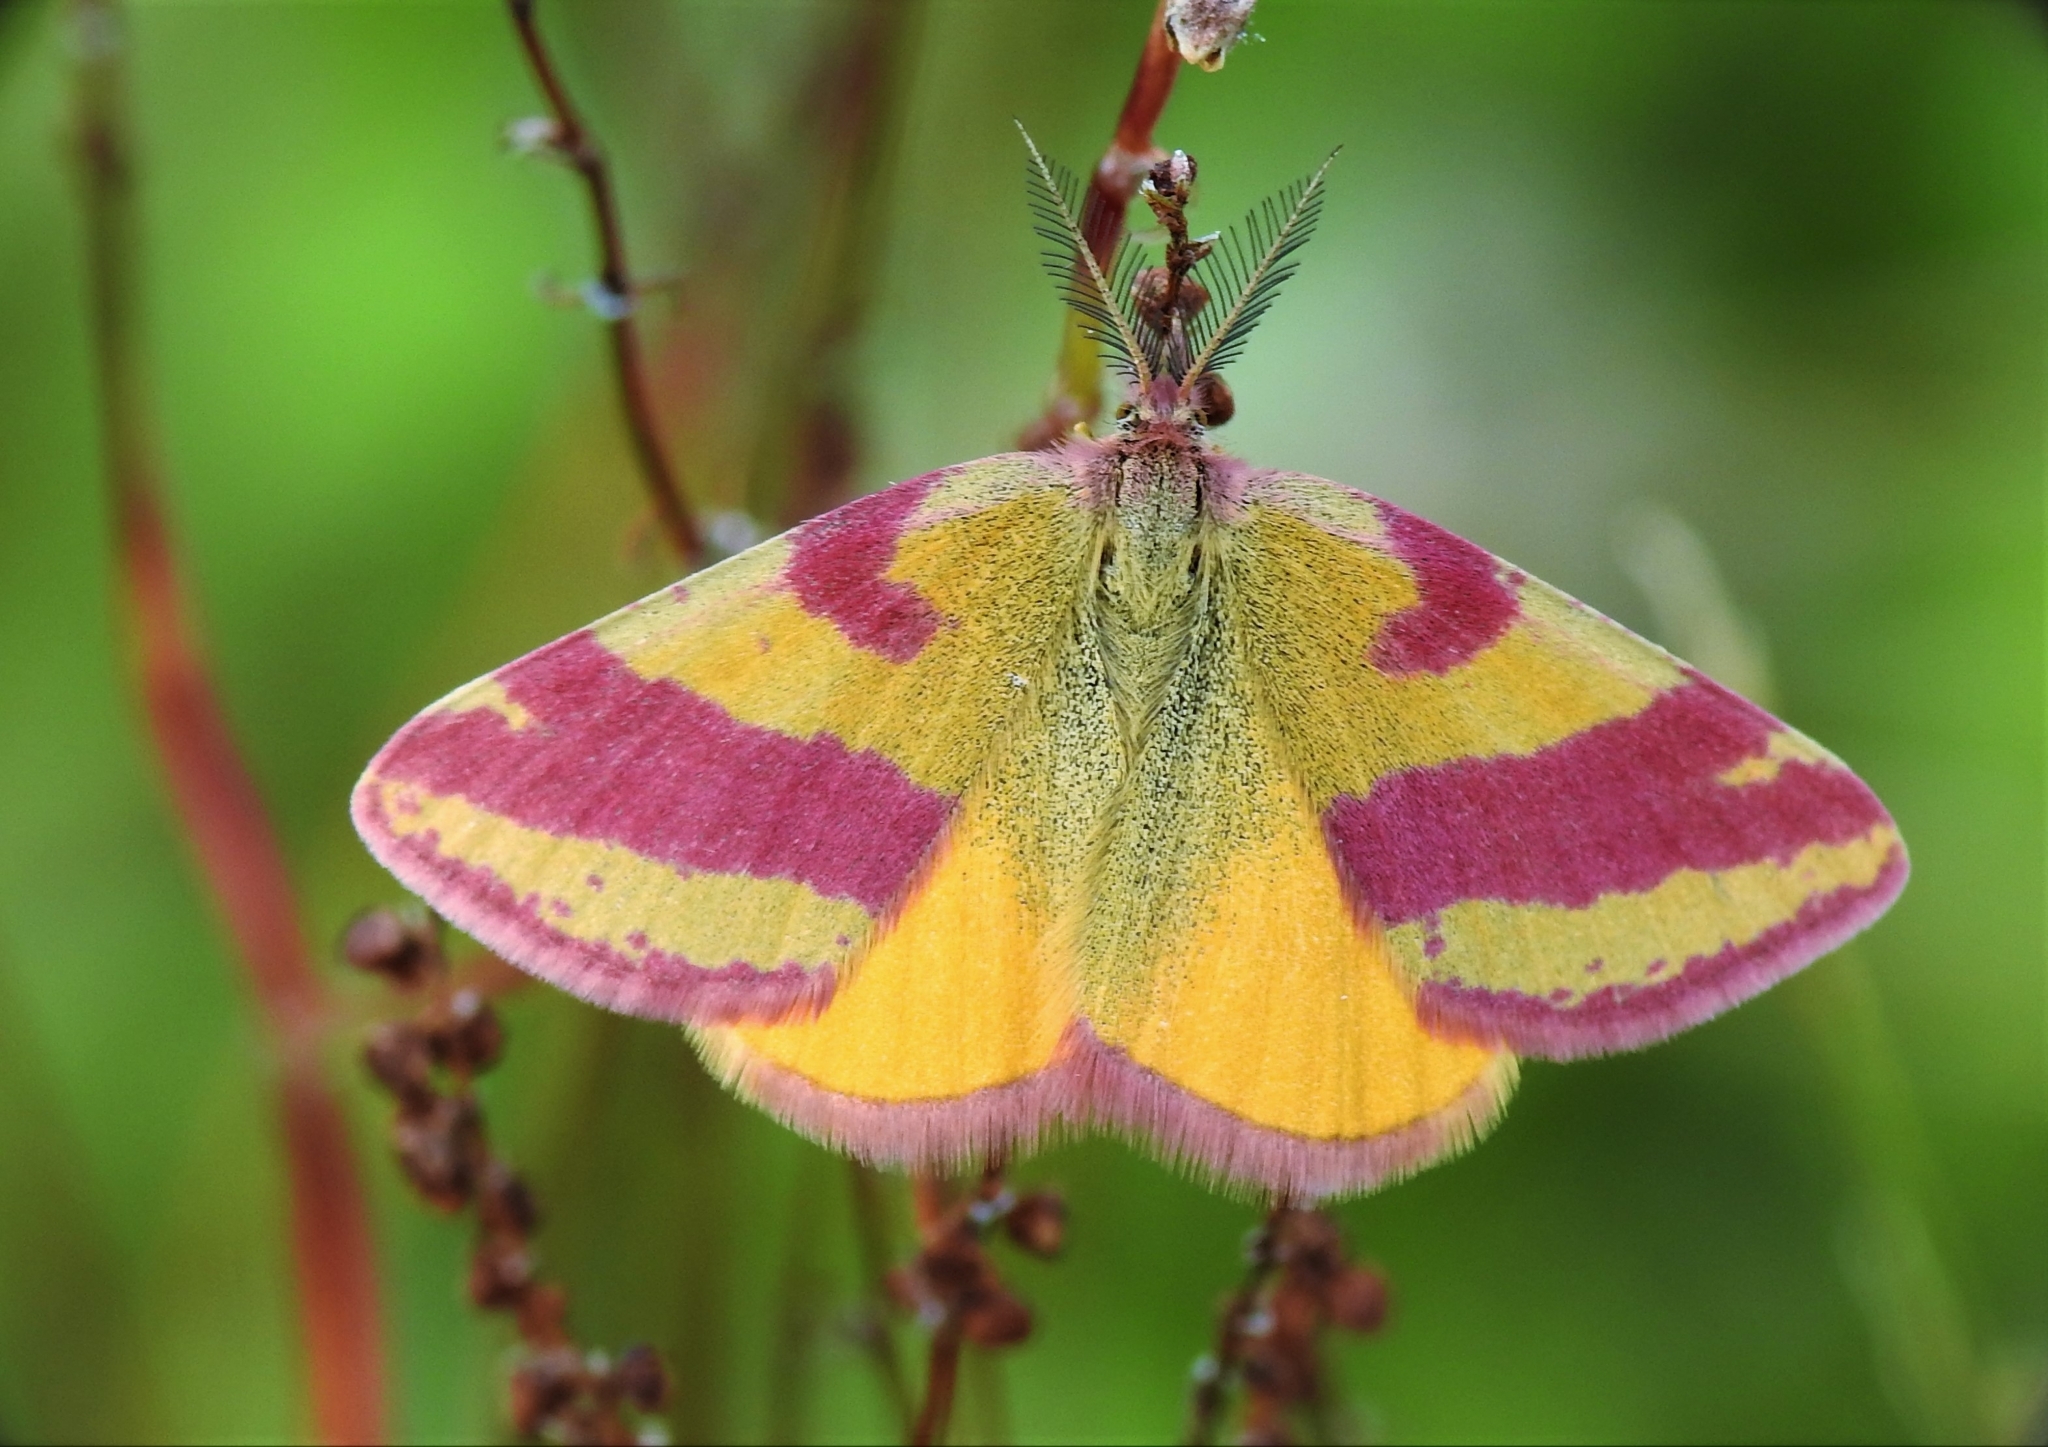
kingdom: Animalia
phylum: Arthropoda
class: Insecta
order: Lepidoptera
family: Geometridae
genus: Lythria
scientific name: Lythria cruentaria
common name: Purple-barred yellow
